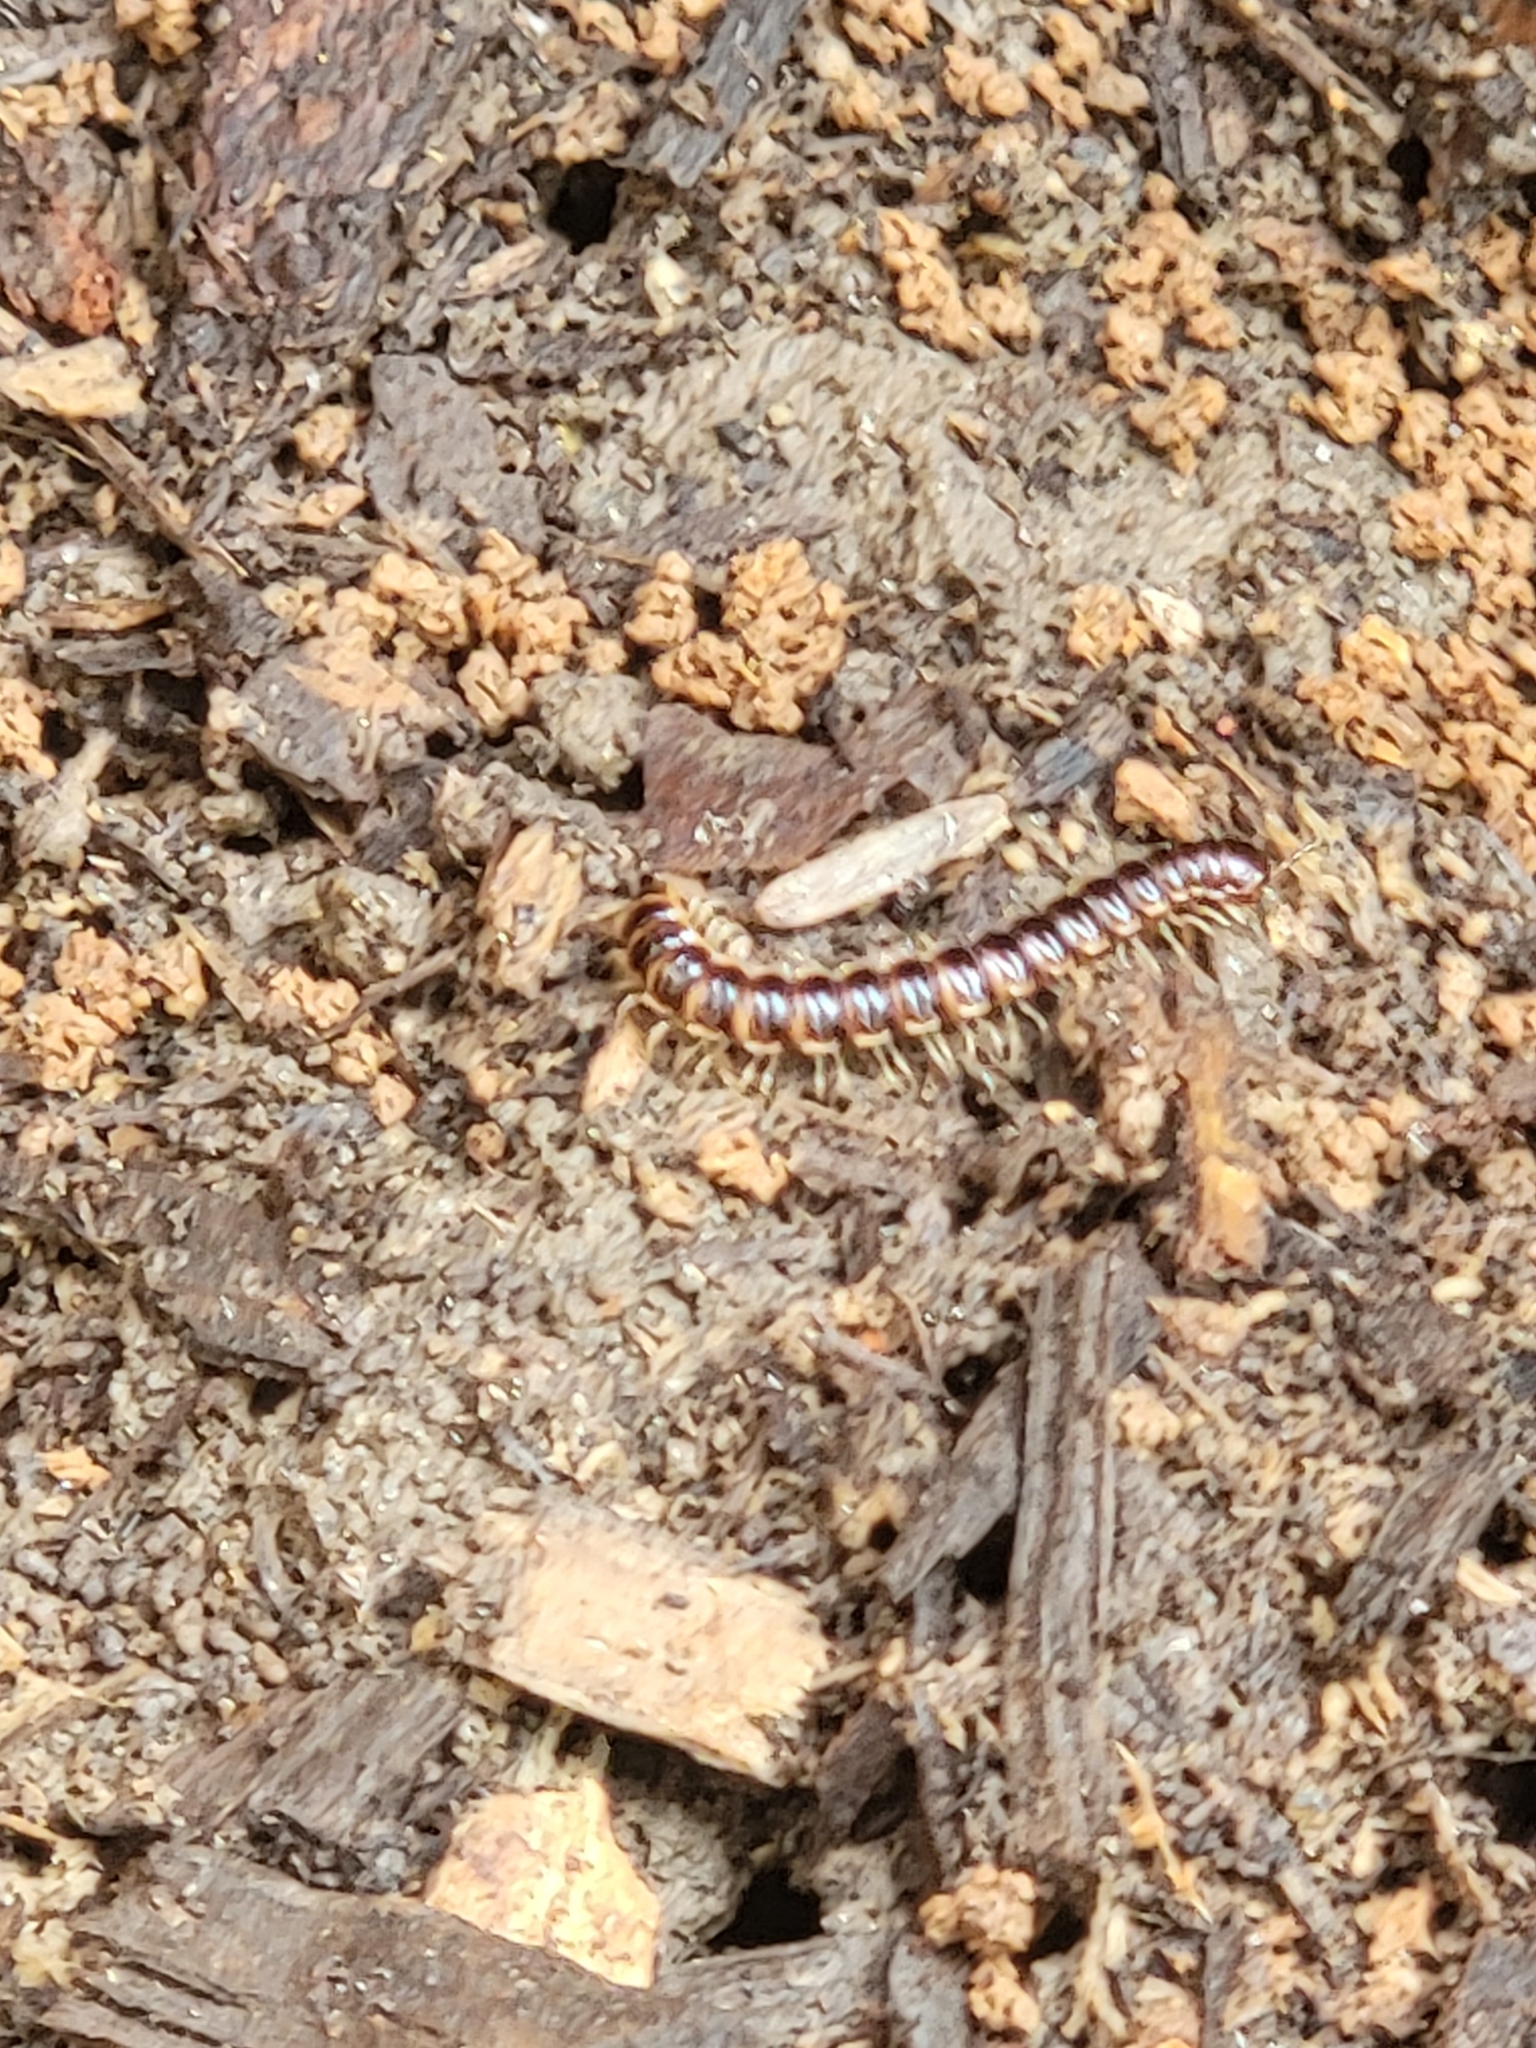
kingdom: Animalia
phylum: Arthropoda
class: Diplopoda
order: Polydesmida
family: Paradoxosomatidae
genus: Oxidus
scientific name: Oxidus gracilis
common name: Greenhouse millipede
